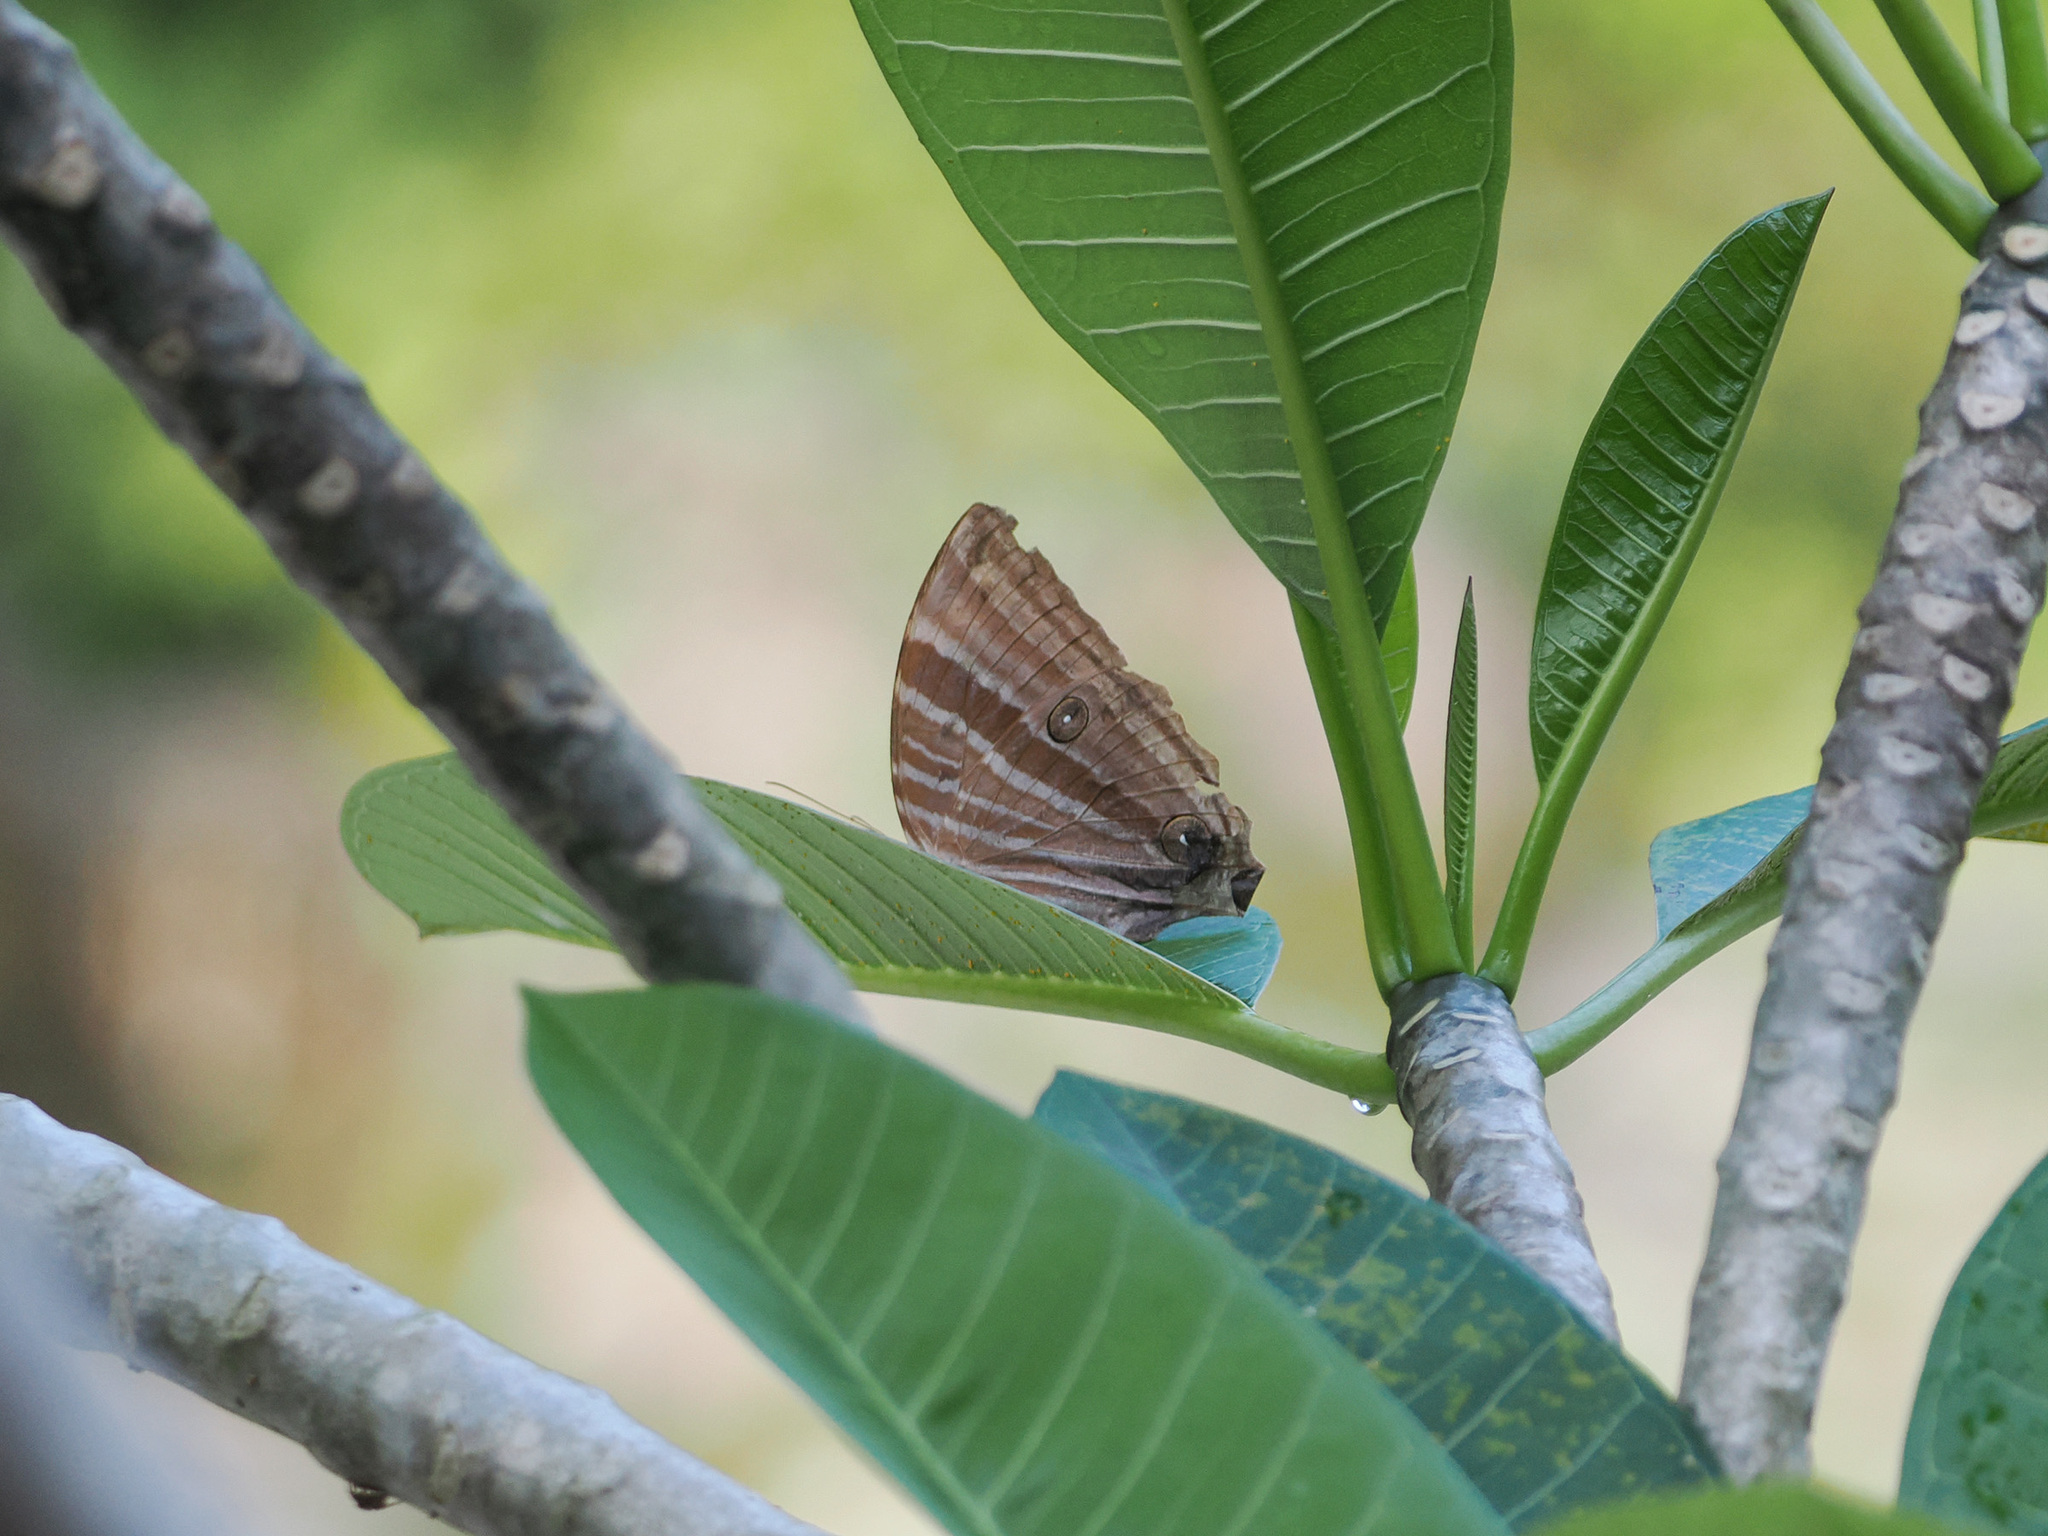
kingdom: Animalia
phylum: Arthropoda
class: Insecta
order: Lepidoptera
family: Nymphalidae
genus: Amathusia
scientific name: Amathusia phidippus
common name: Palm king
